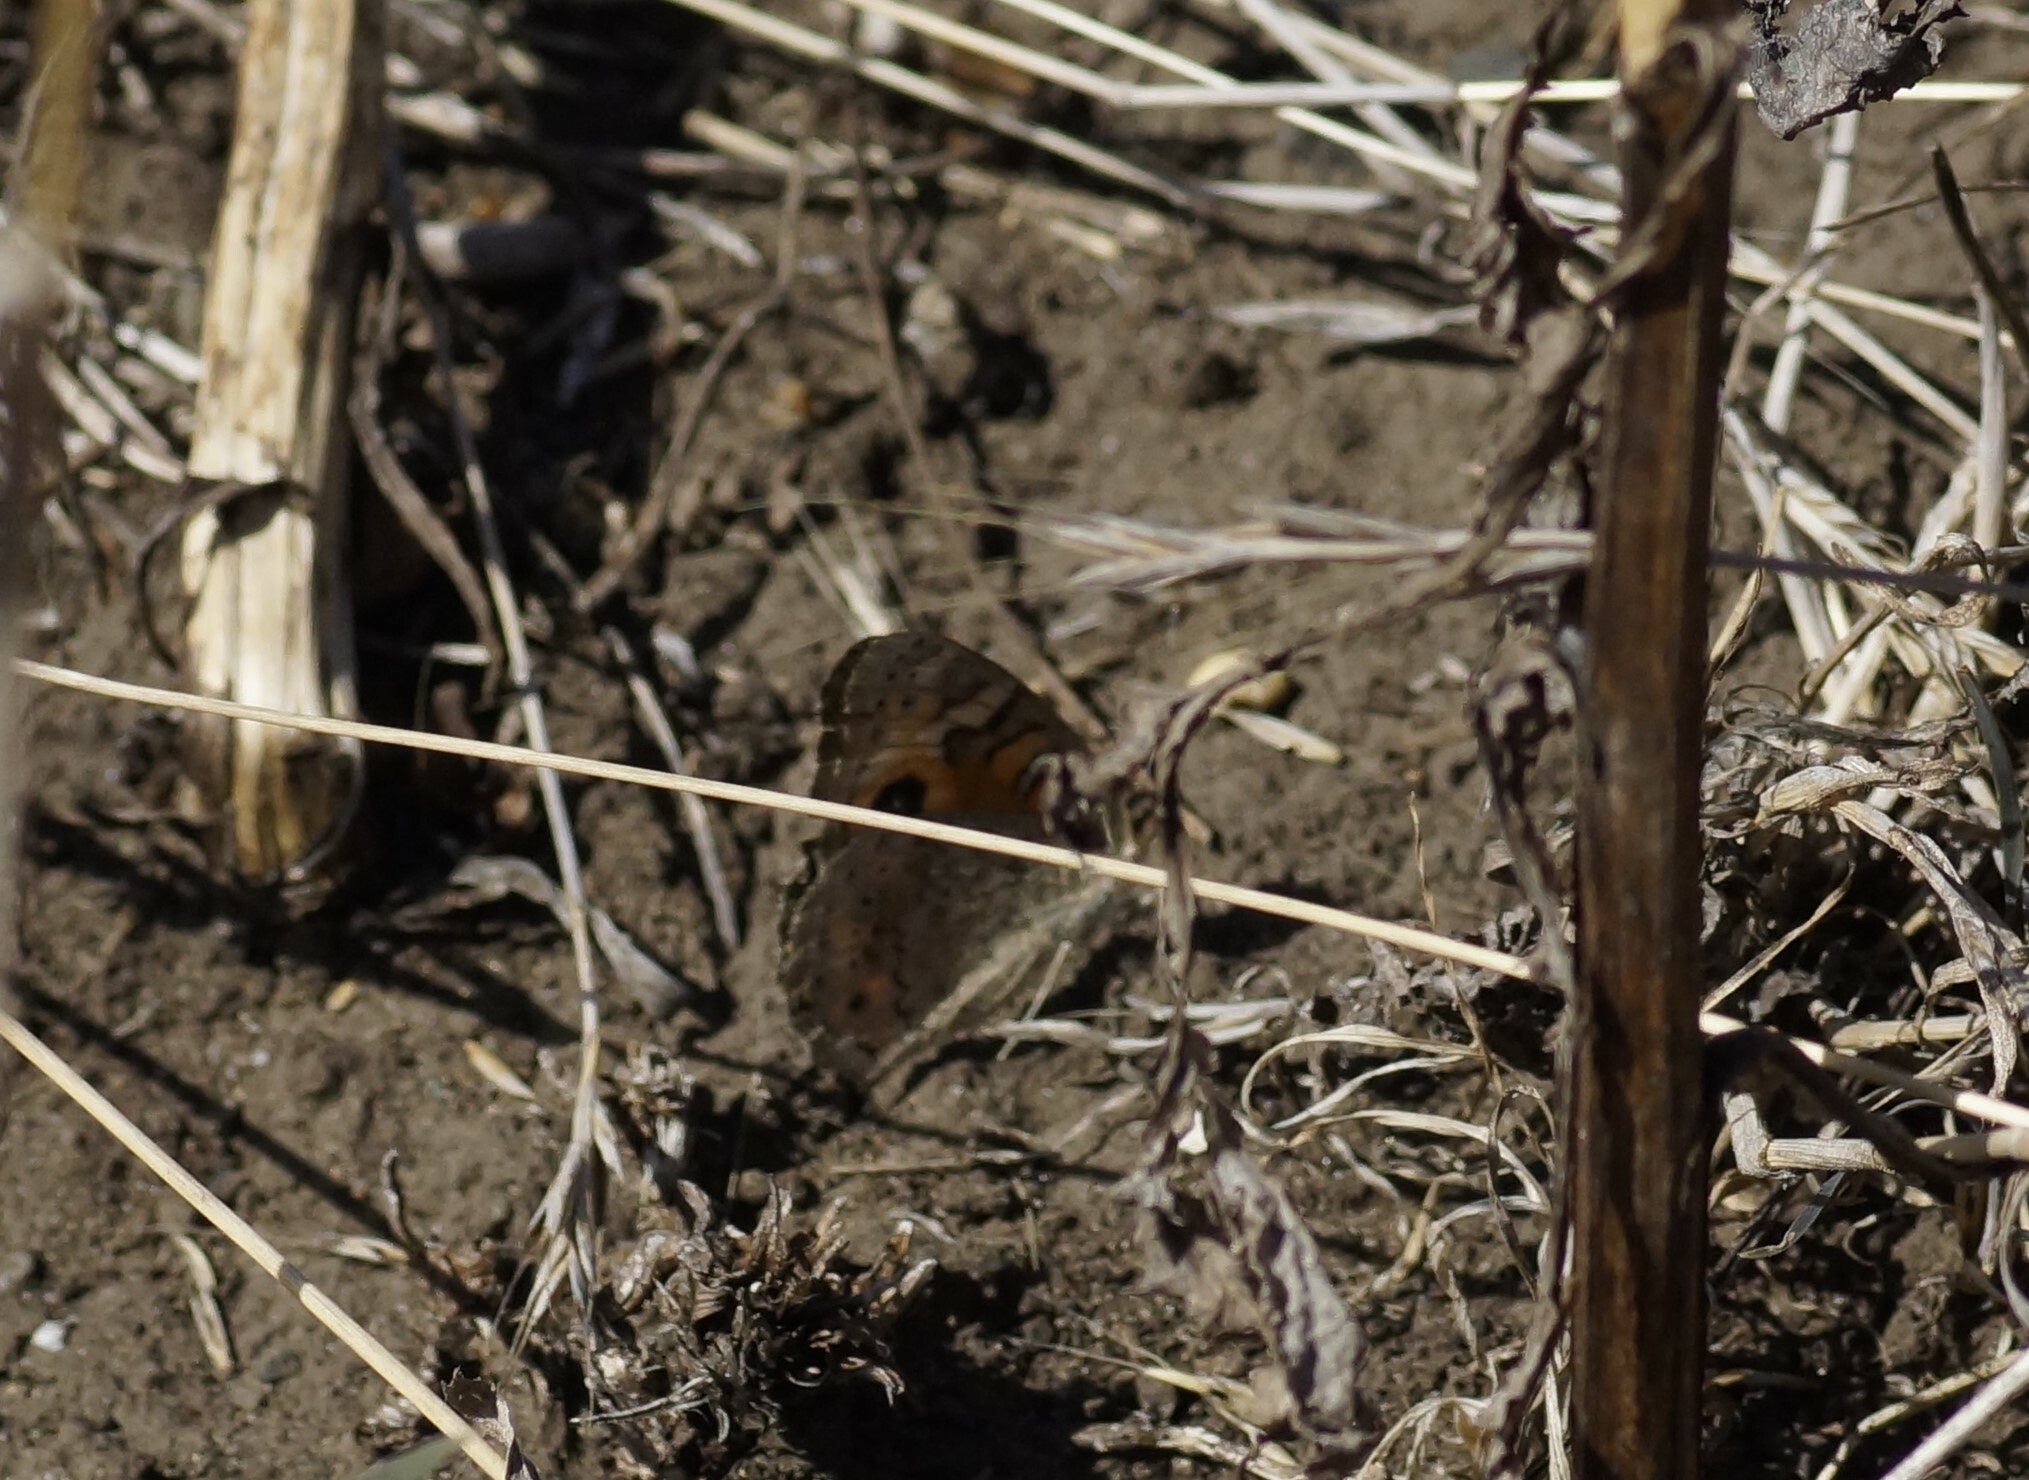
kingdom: Animalia
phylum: Arthropoda
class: Insecta
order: Lepidoptera
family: Nymphalidae
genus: Junonia
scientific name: Junonia villida
